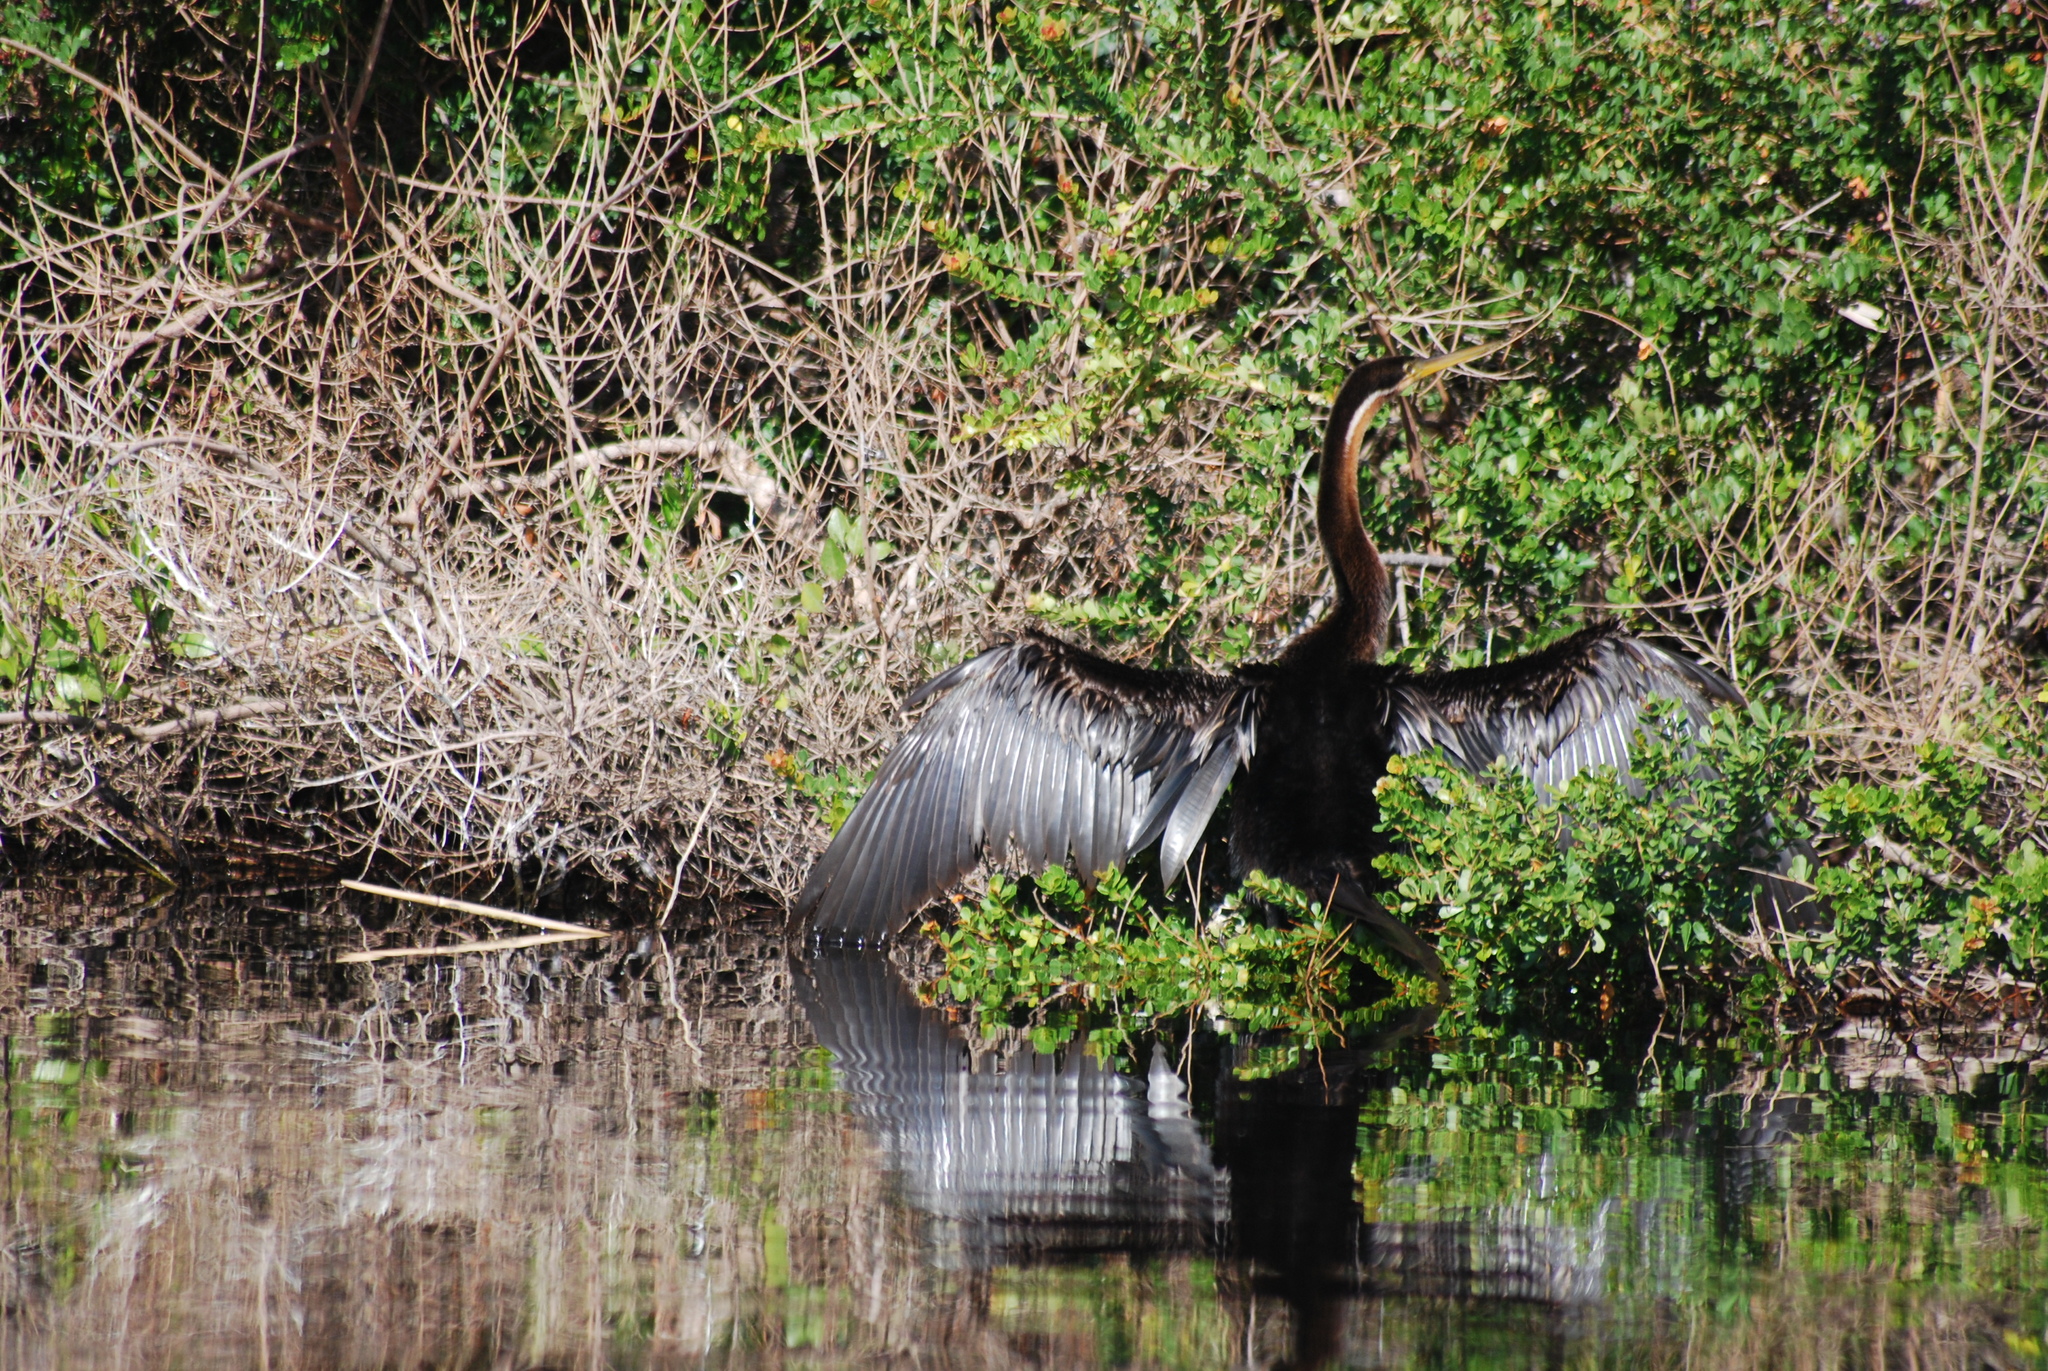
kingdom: Animalia
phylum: Chordata
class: Aves
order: Suliformes
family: Anhingidae
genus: Anhinga
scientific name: Anhinga rufa
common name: African darter
